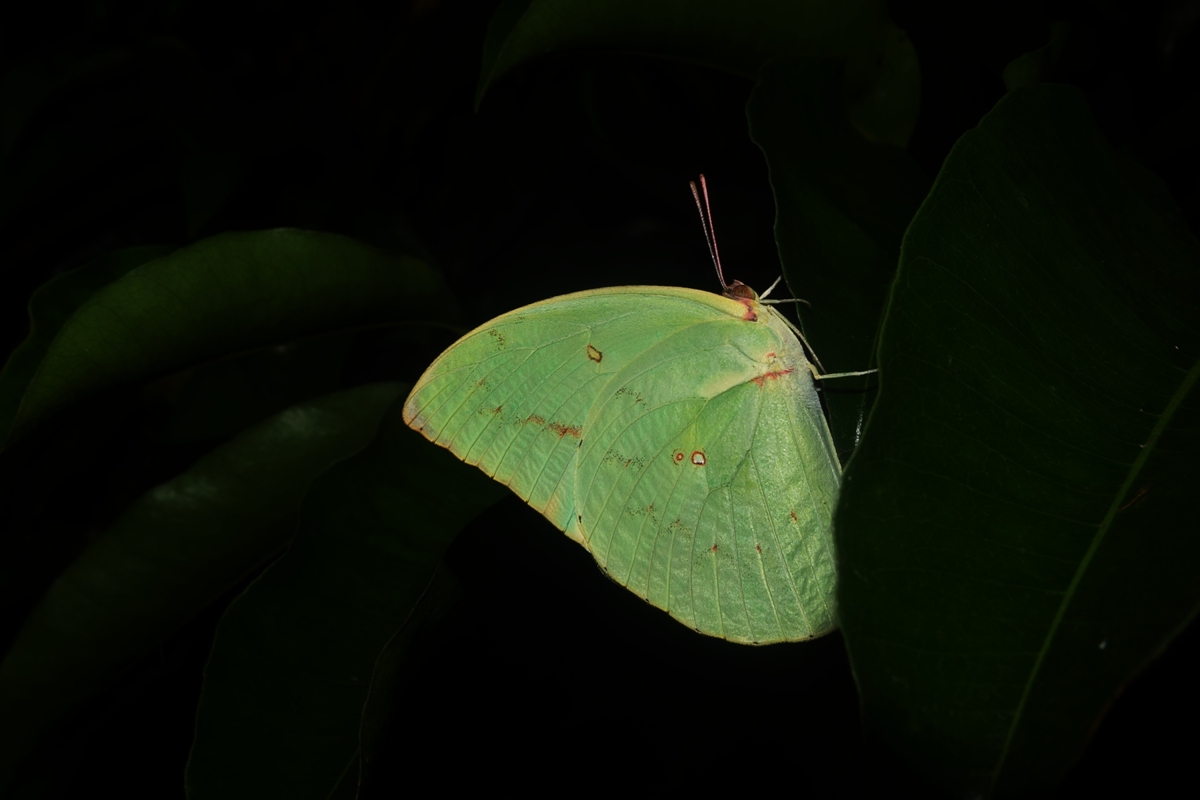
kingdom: Animalia
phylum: Arthropoda
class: Insecta
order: Lepidoptera
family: Pieridae
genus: Catopsilia
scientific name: Catopsilia pomona
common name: Common emigrant
